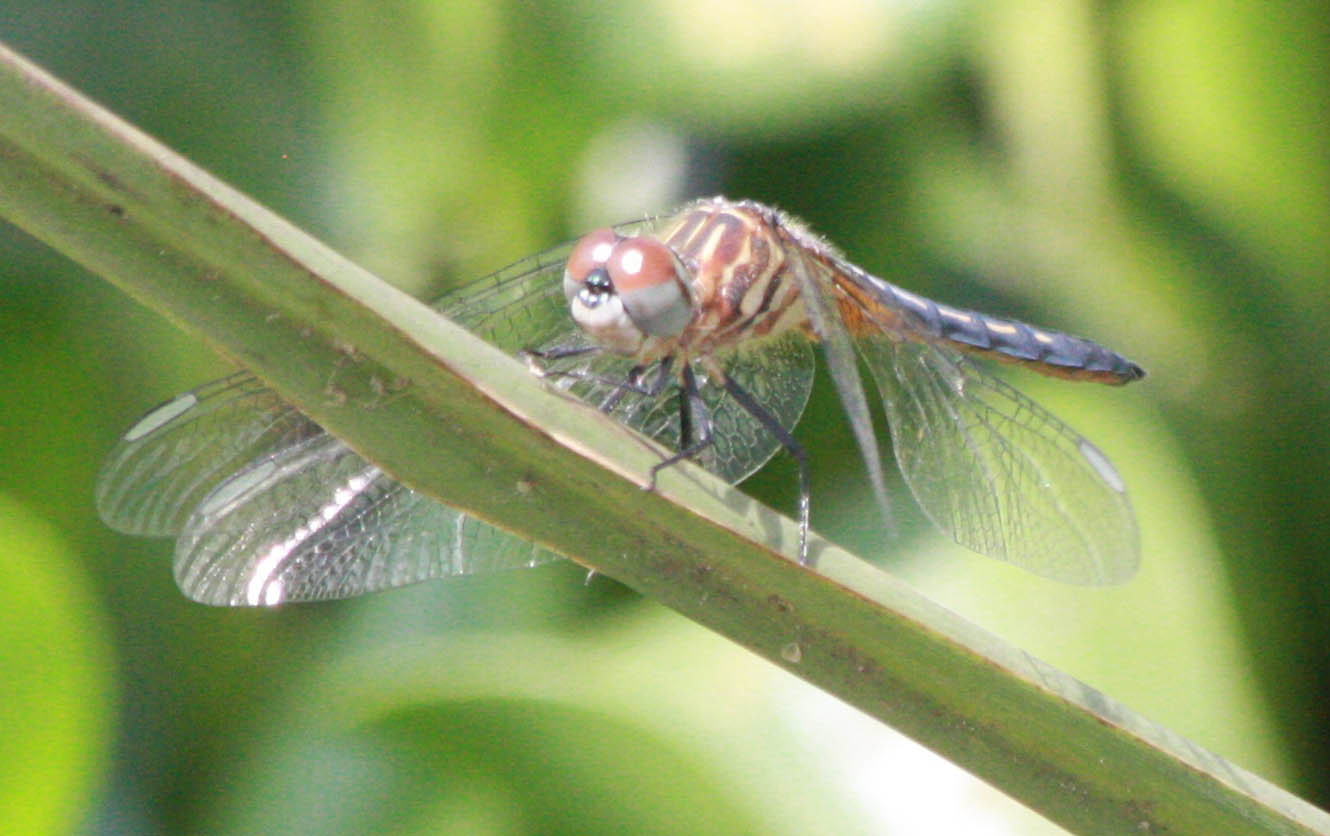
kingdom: Animalia
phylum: Arthropoda
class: Insecta
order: Odonata
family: Libellulidae
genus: Pachydiplax
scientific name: Pachydiplax longipennis
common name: Blue dasher
